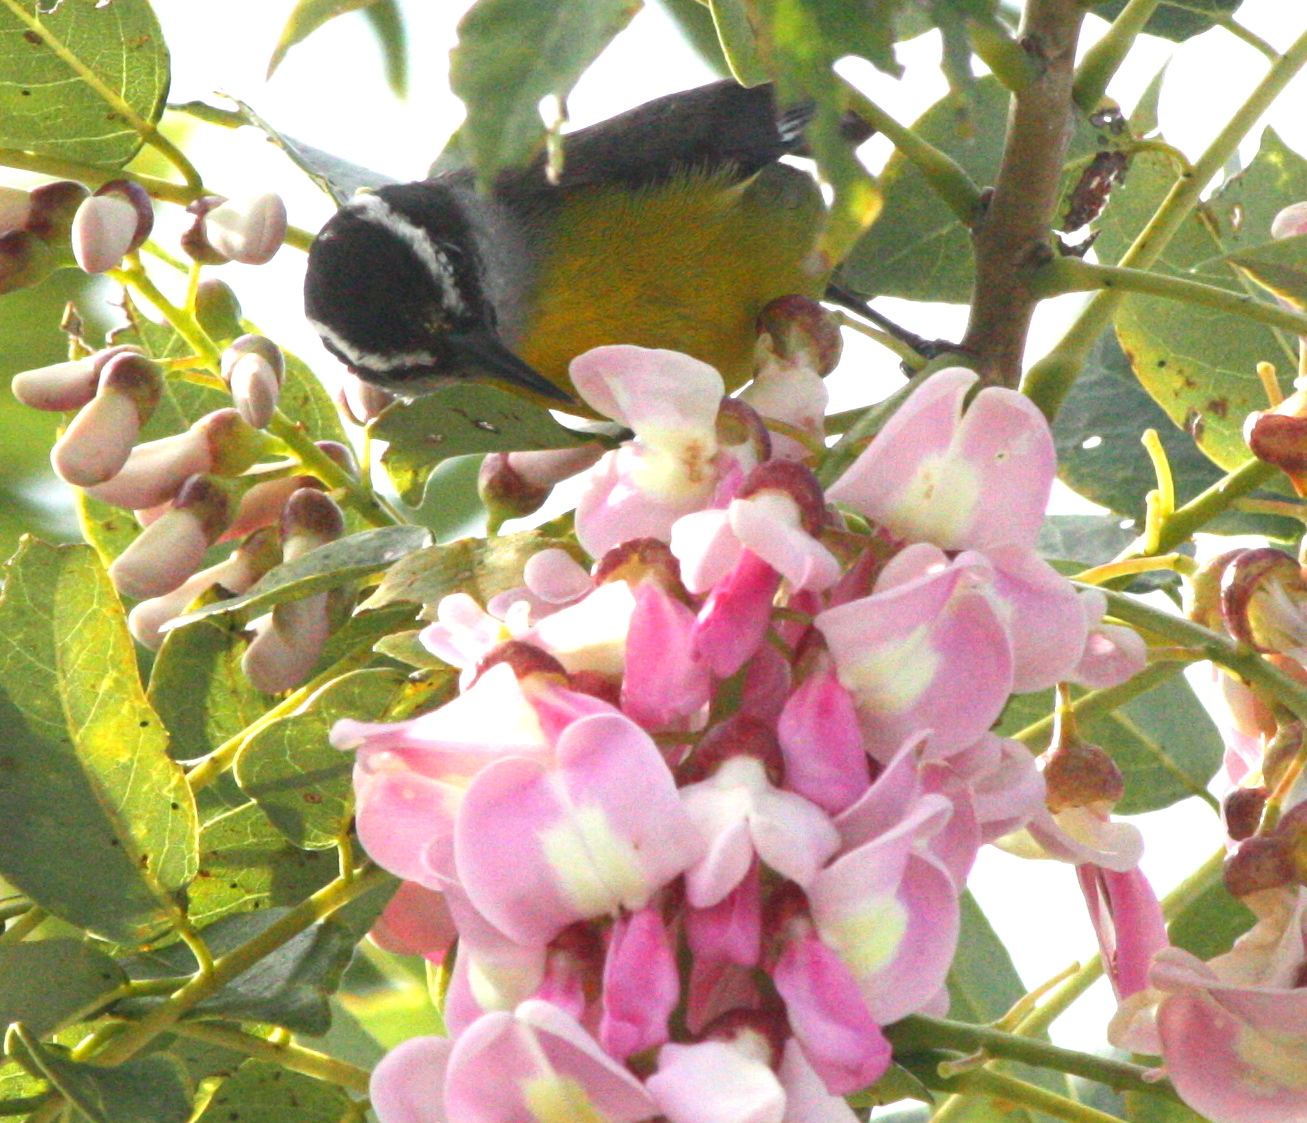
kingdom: Animalia
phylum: Chordata
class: Aves
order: Passeriformes
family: Thraupidae
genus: Coereba
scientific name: Coereba flaveola
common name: Bananaquit
